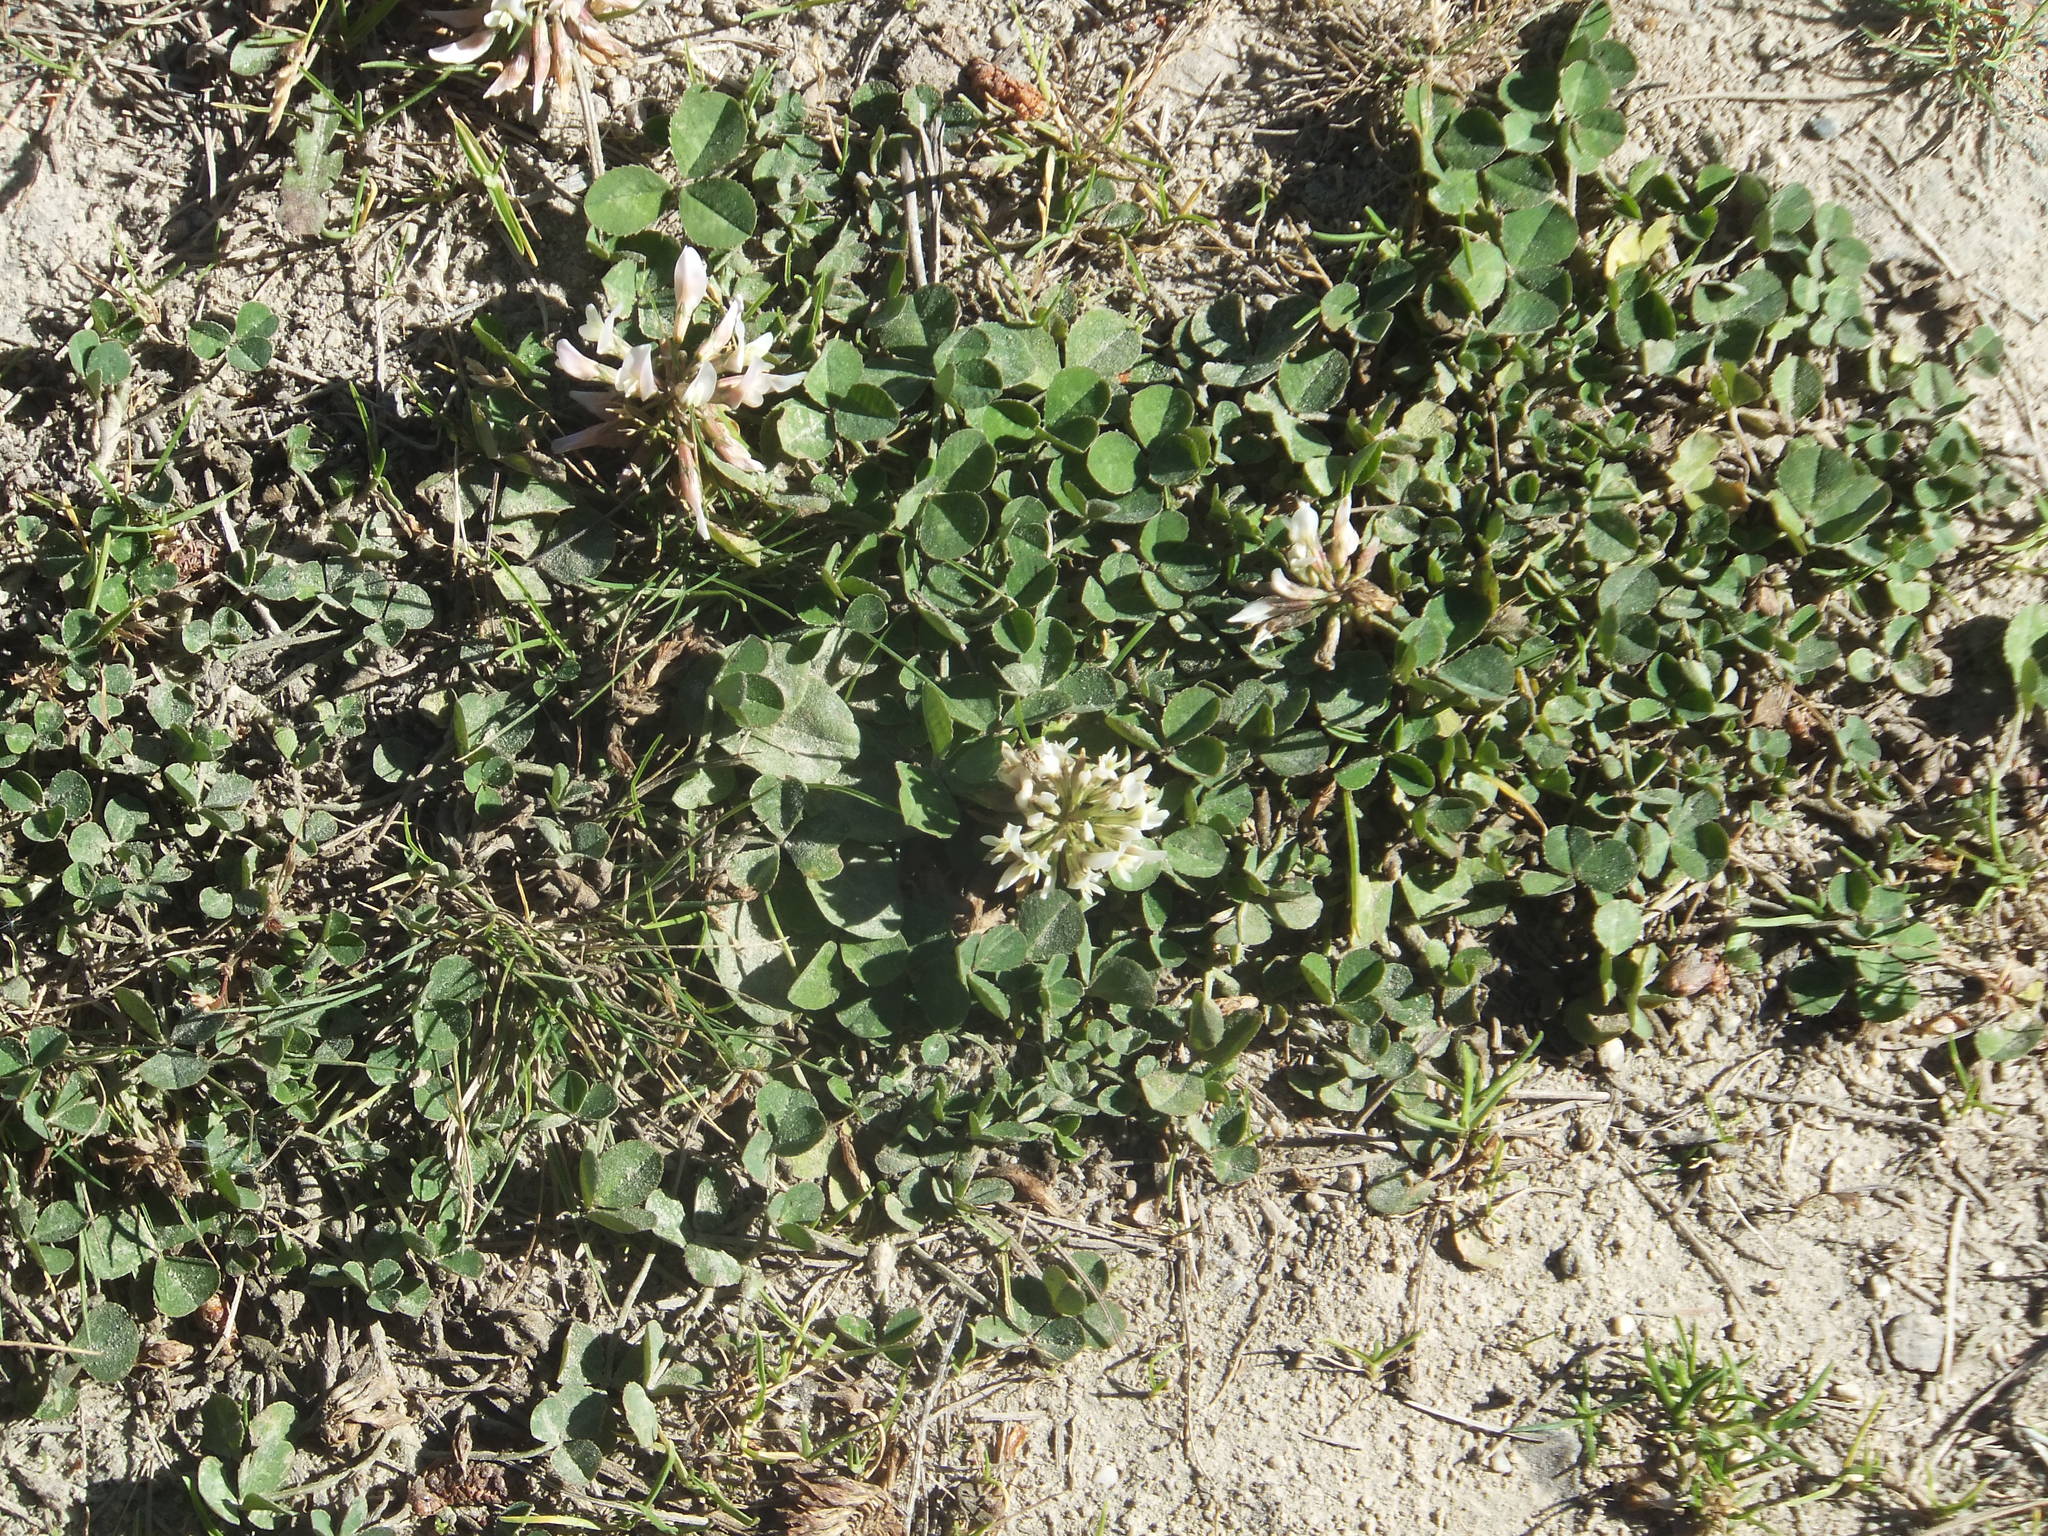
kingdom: Plantae
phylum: Tracheophyta
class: Magnoliopsida
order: Fabales
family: Fabaceae
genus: Trifolium
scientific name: Trifolium repens
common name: White clover
